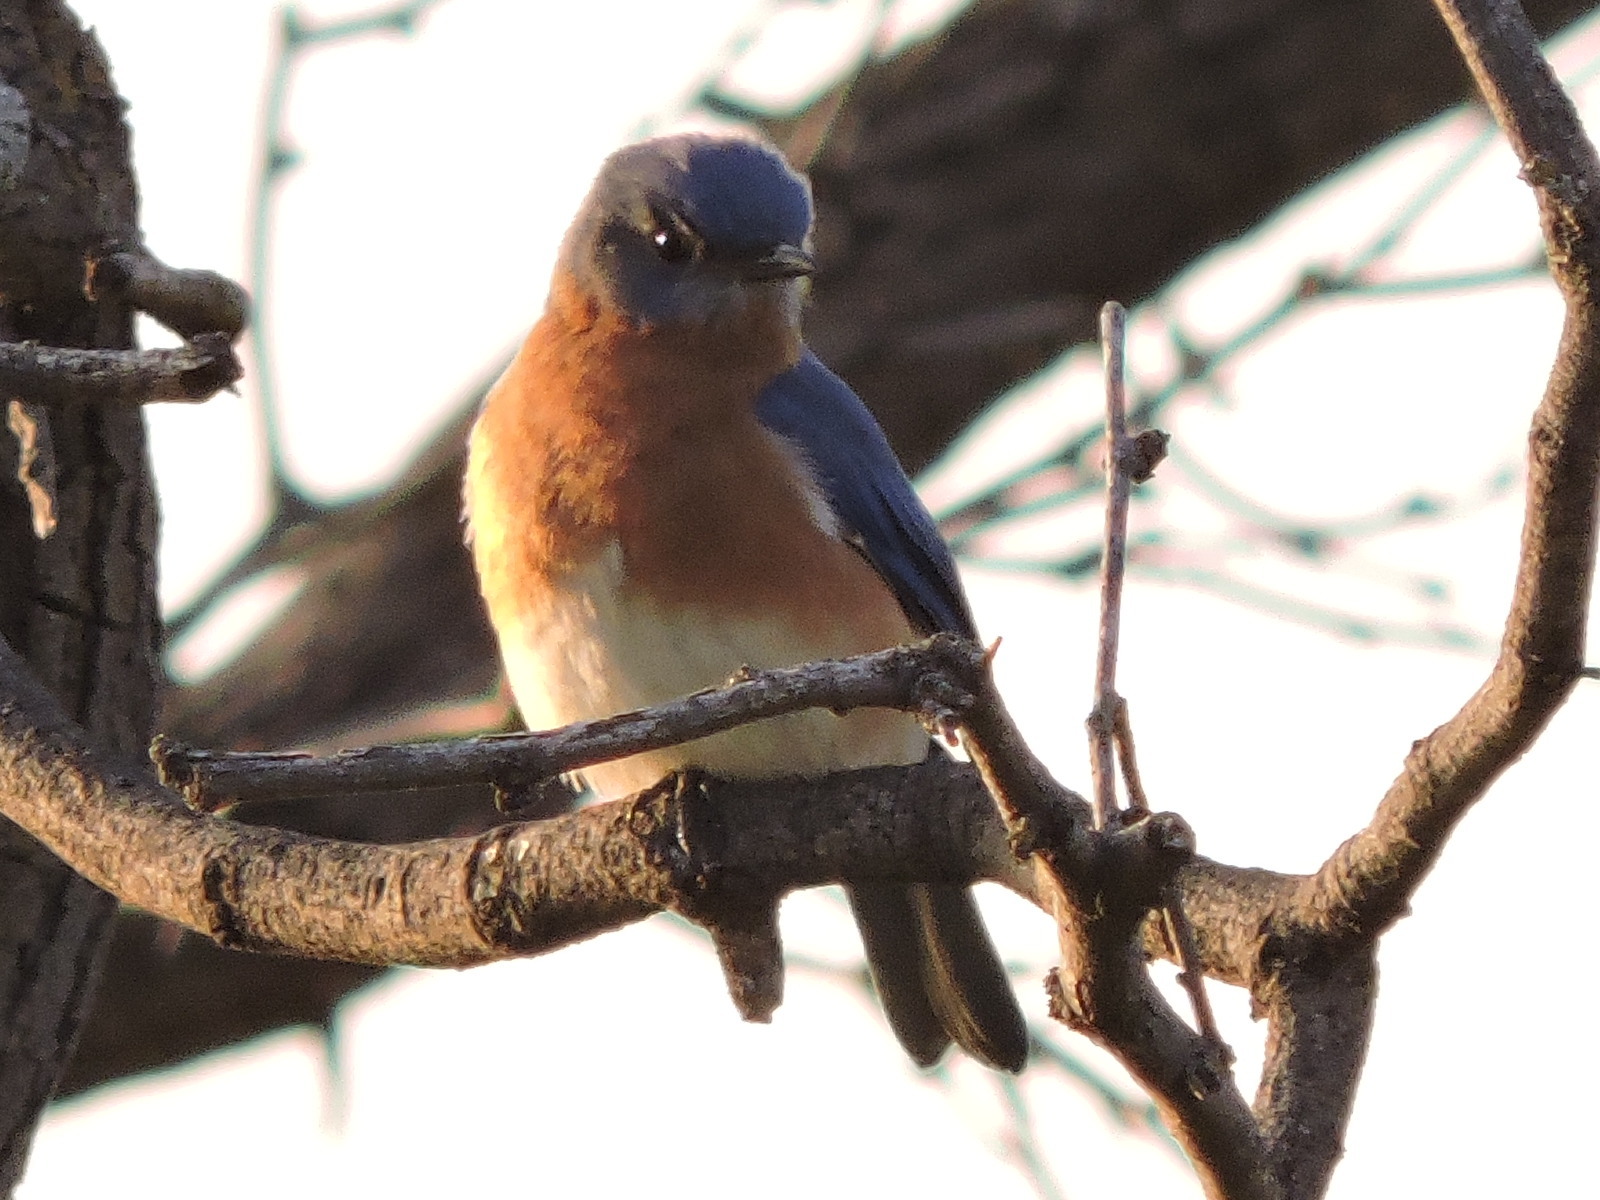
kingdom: Animalia
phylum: Chordata
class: Aves
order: Passeriformes
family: Turdidae
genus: Sialia
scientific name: Sialia sialis
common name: Eastern bluebird
